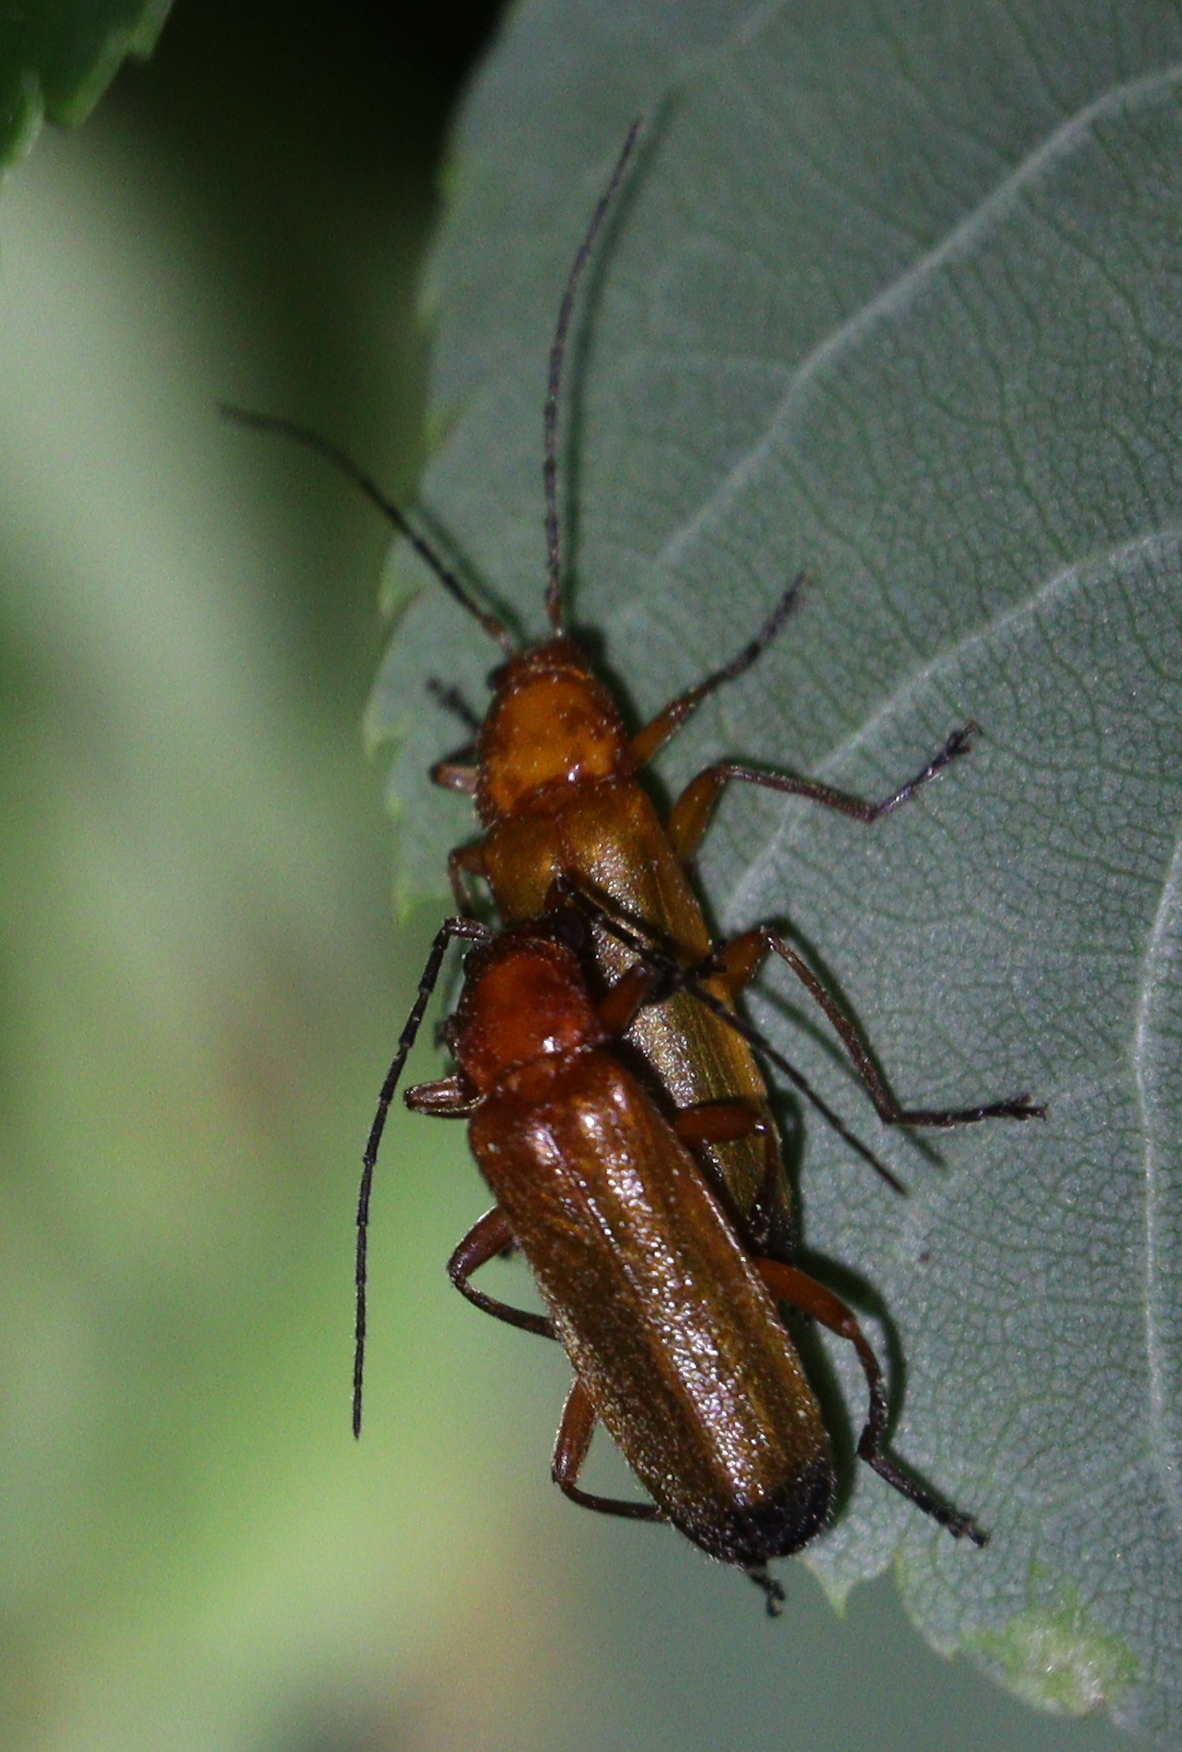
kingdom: Animalia
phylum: Arthropoda
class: Insecta
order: Coleoptera
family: Cantharidae
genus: Rhagonycha
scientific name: Rhagonycha fulva
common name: Common red soldier beetle
